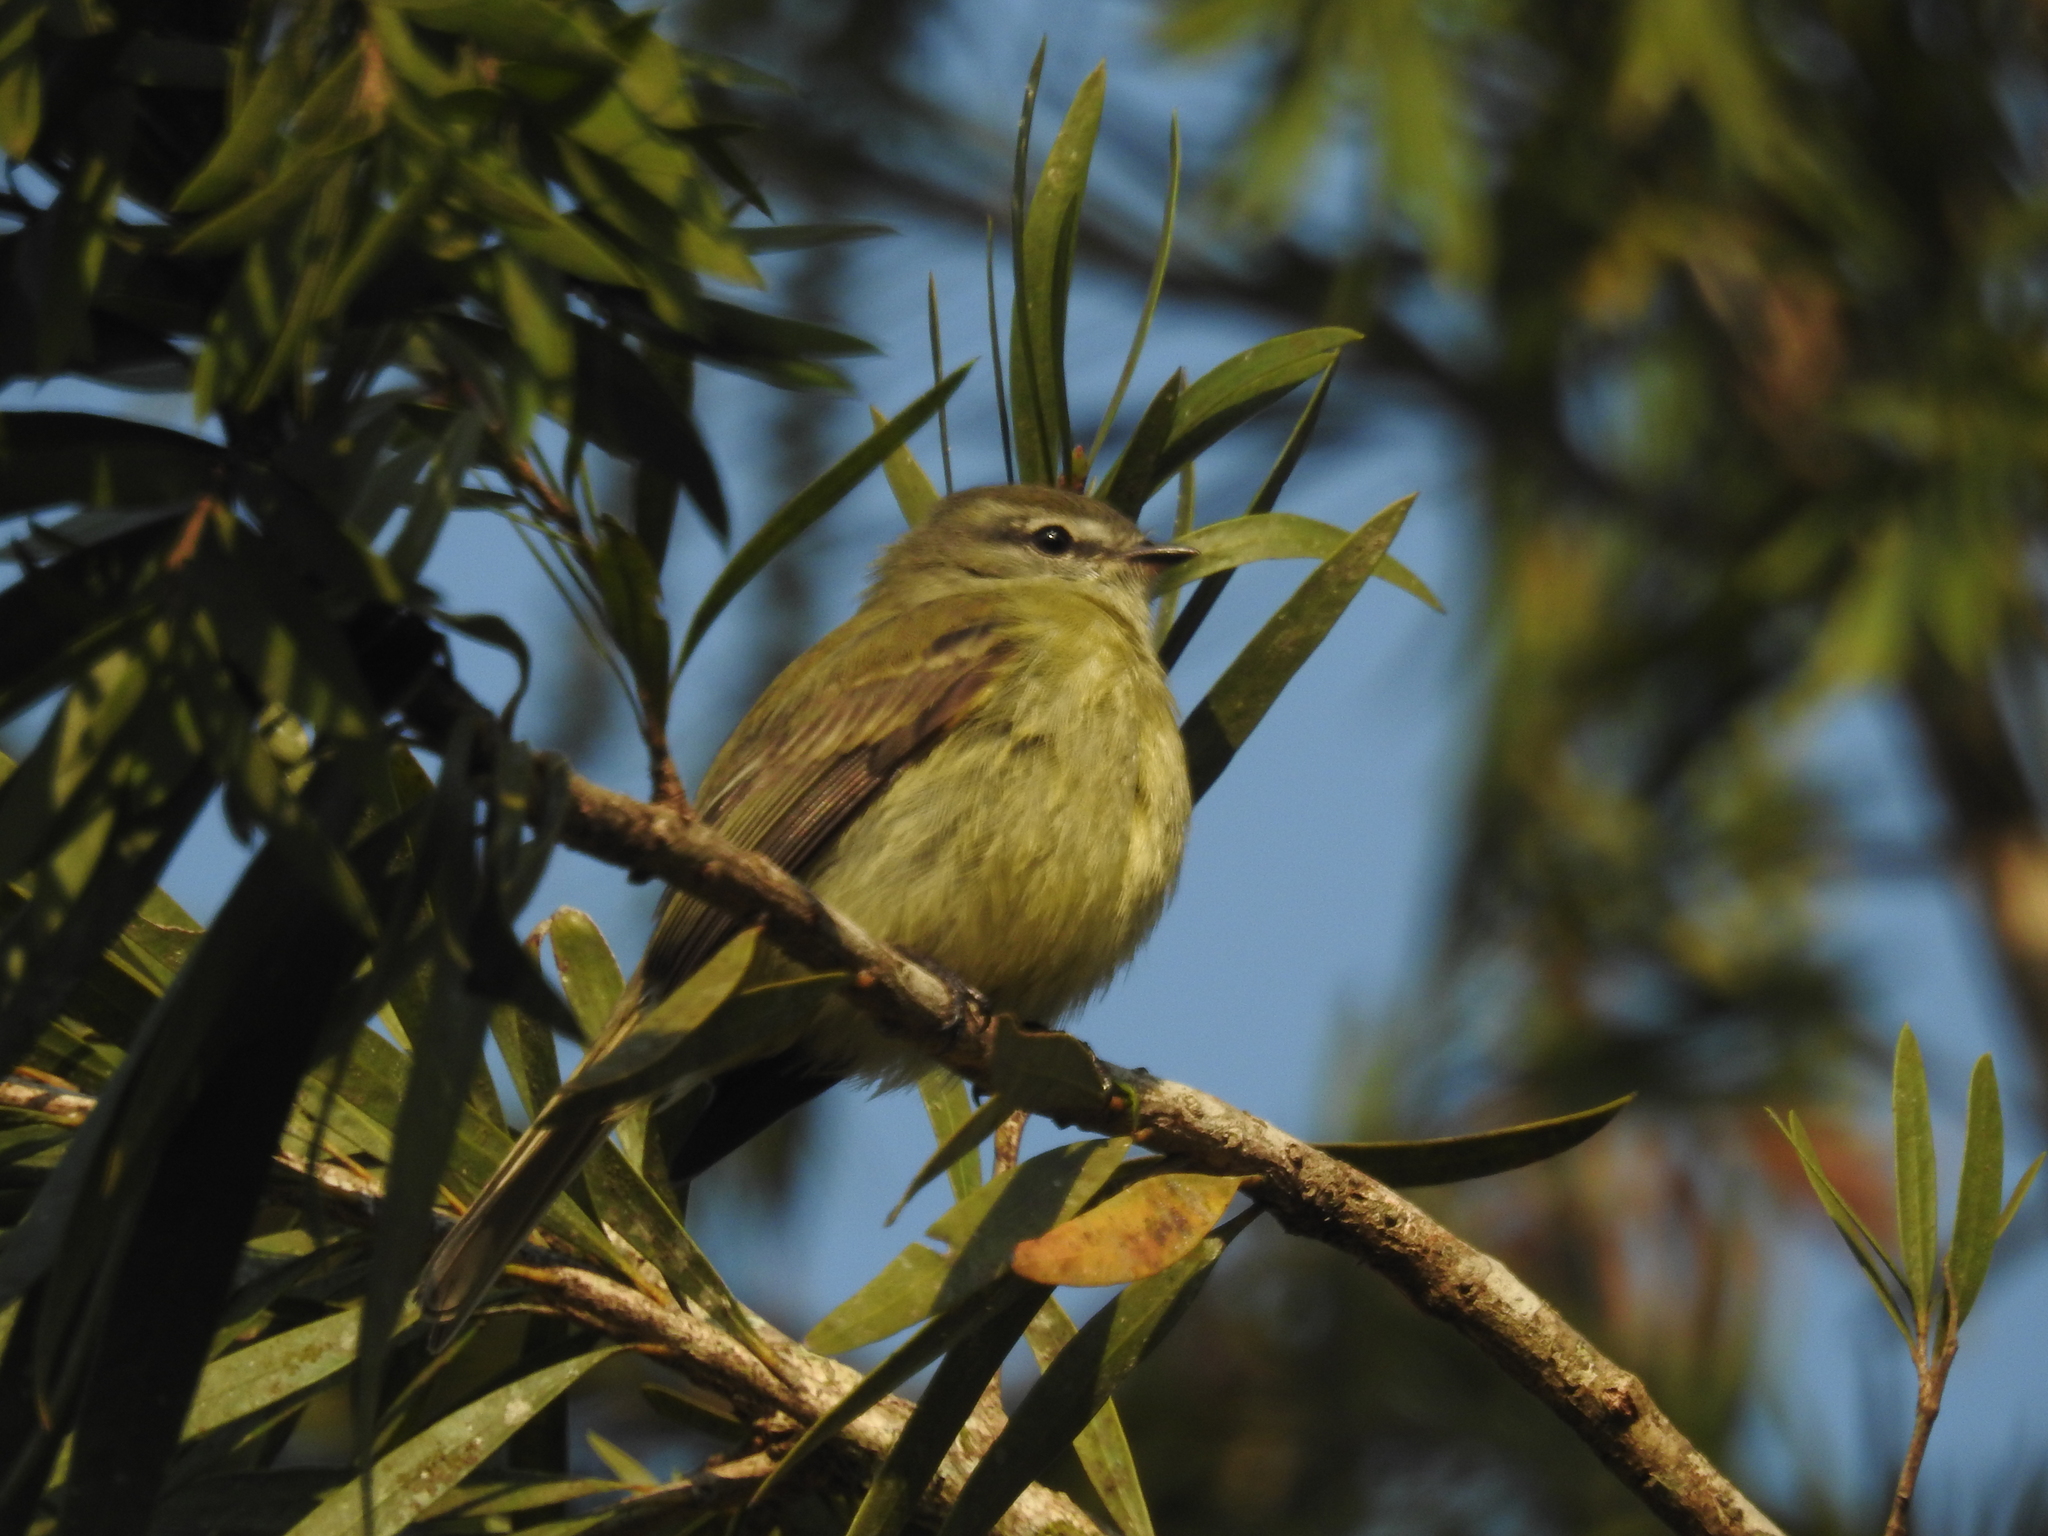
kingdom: Animalia
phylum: Chordata
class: Aves
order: Passeriformes
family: Tyrannidae
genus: Phyllomyias
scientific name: Phyllomyias fasciatus
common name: Planalto tyrannulet
